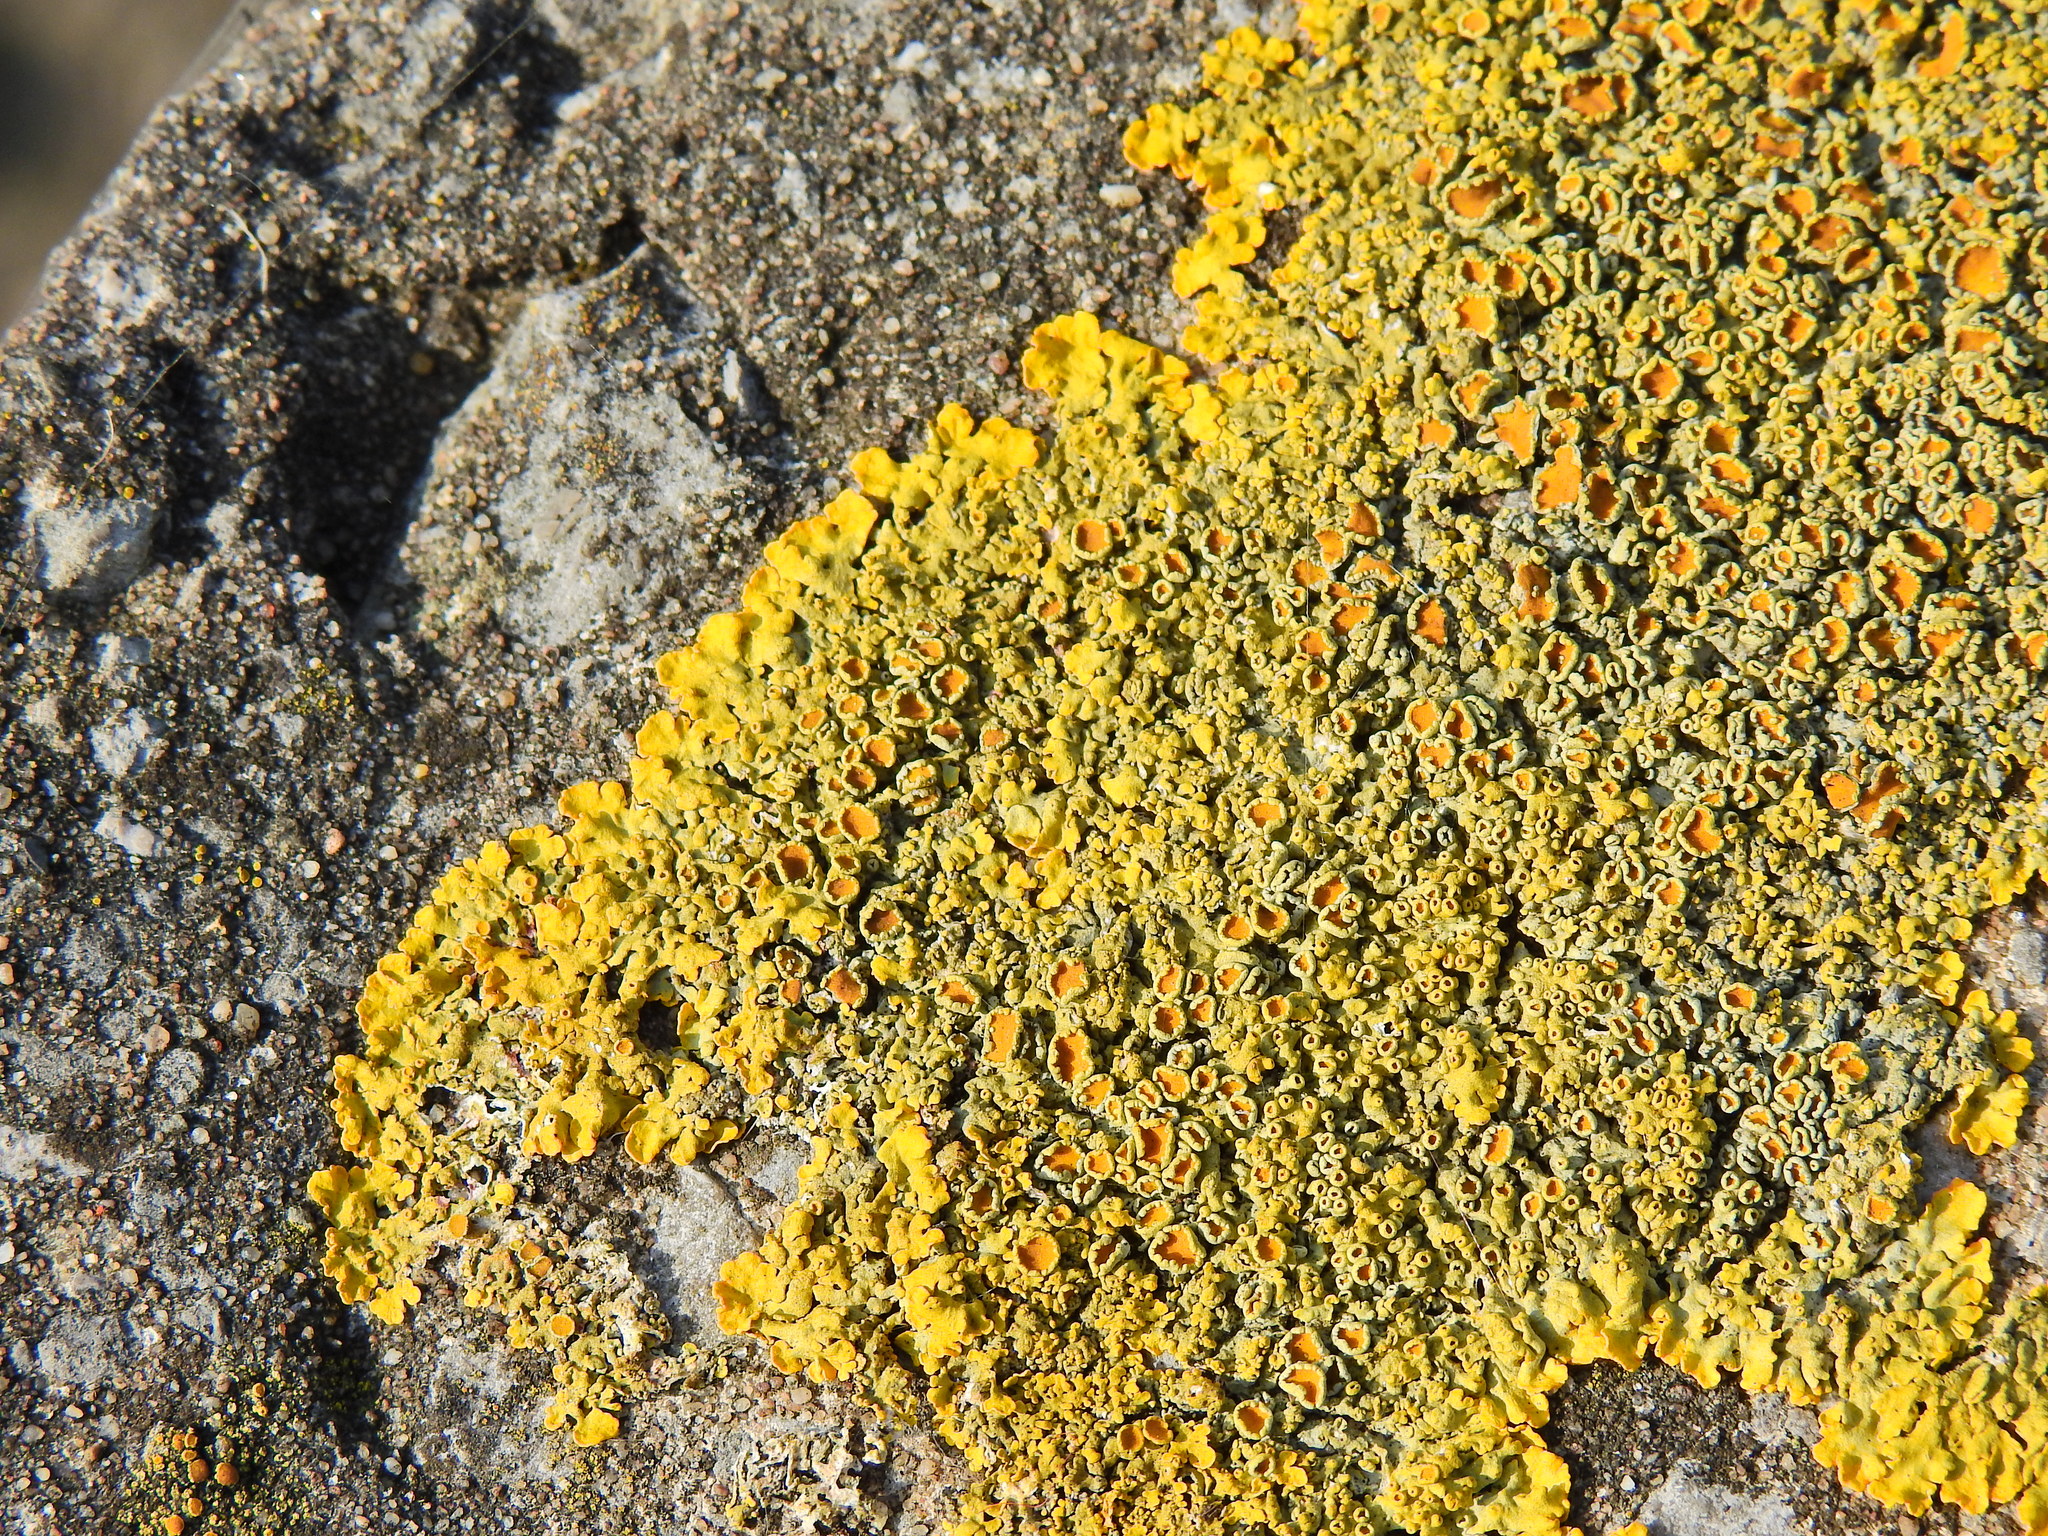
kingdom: Fungi
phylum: Ascomycota
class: Lecanoromycetes
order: Teloschistales
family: Teloschistaceae
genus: Xanthoria
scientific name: Xanthoria parietina
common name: Common orange lichen
